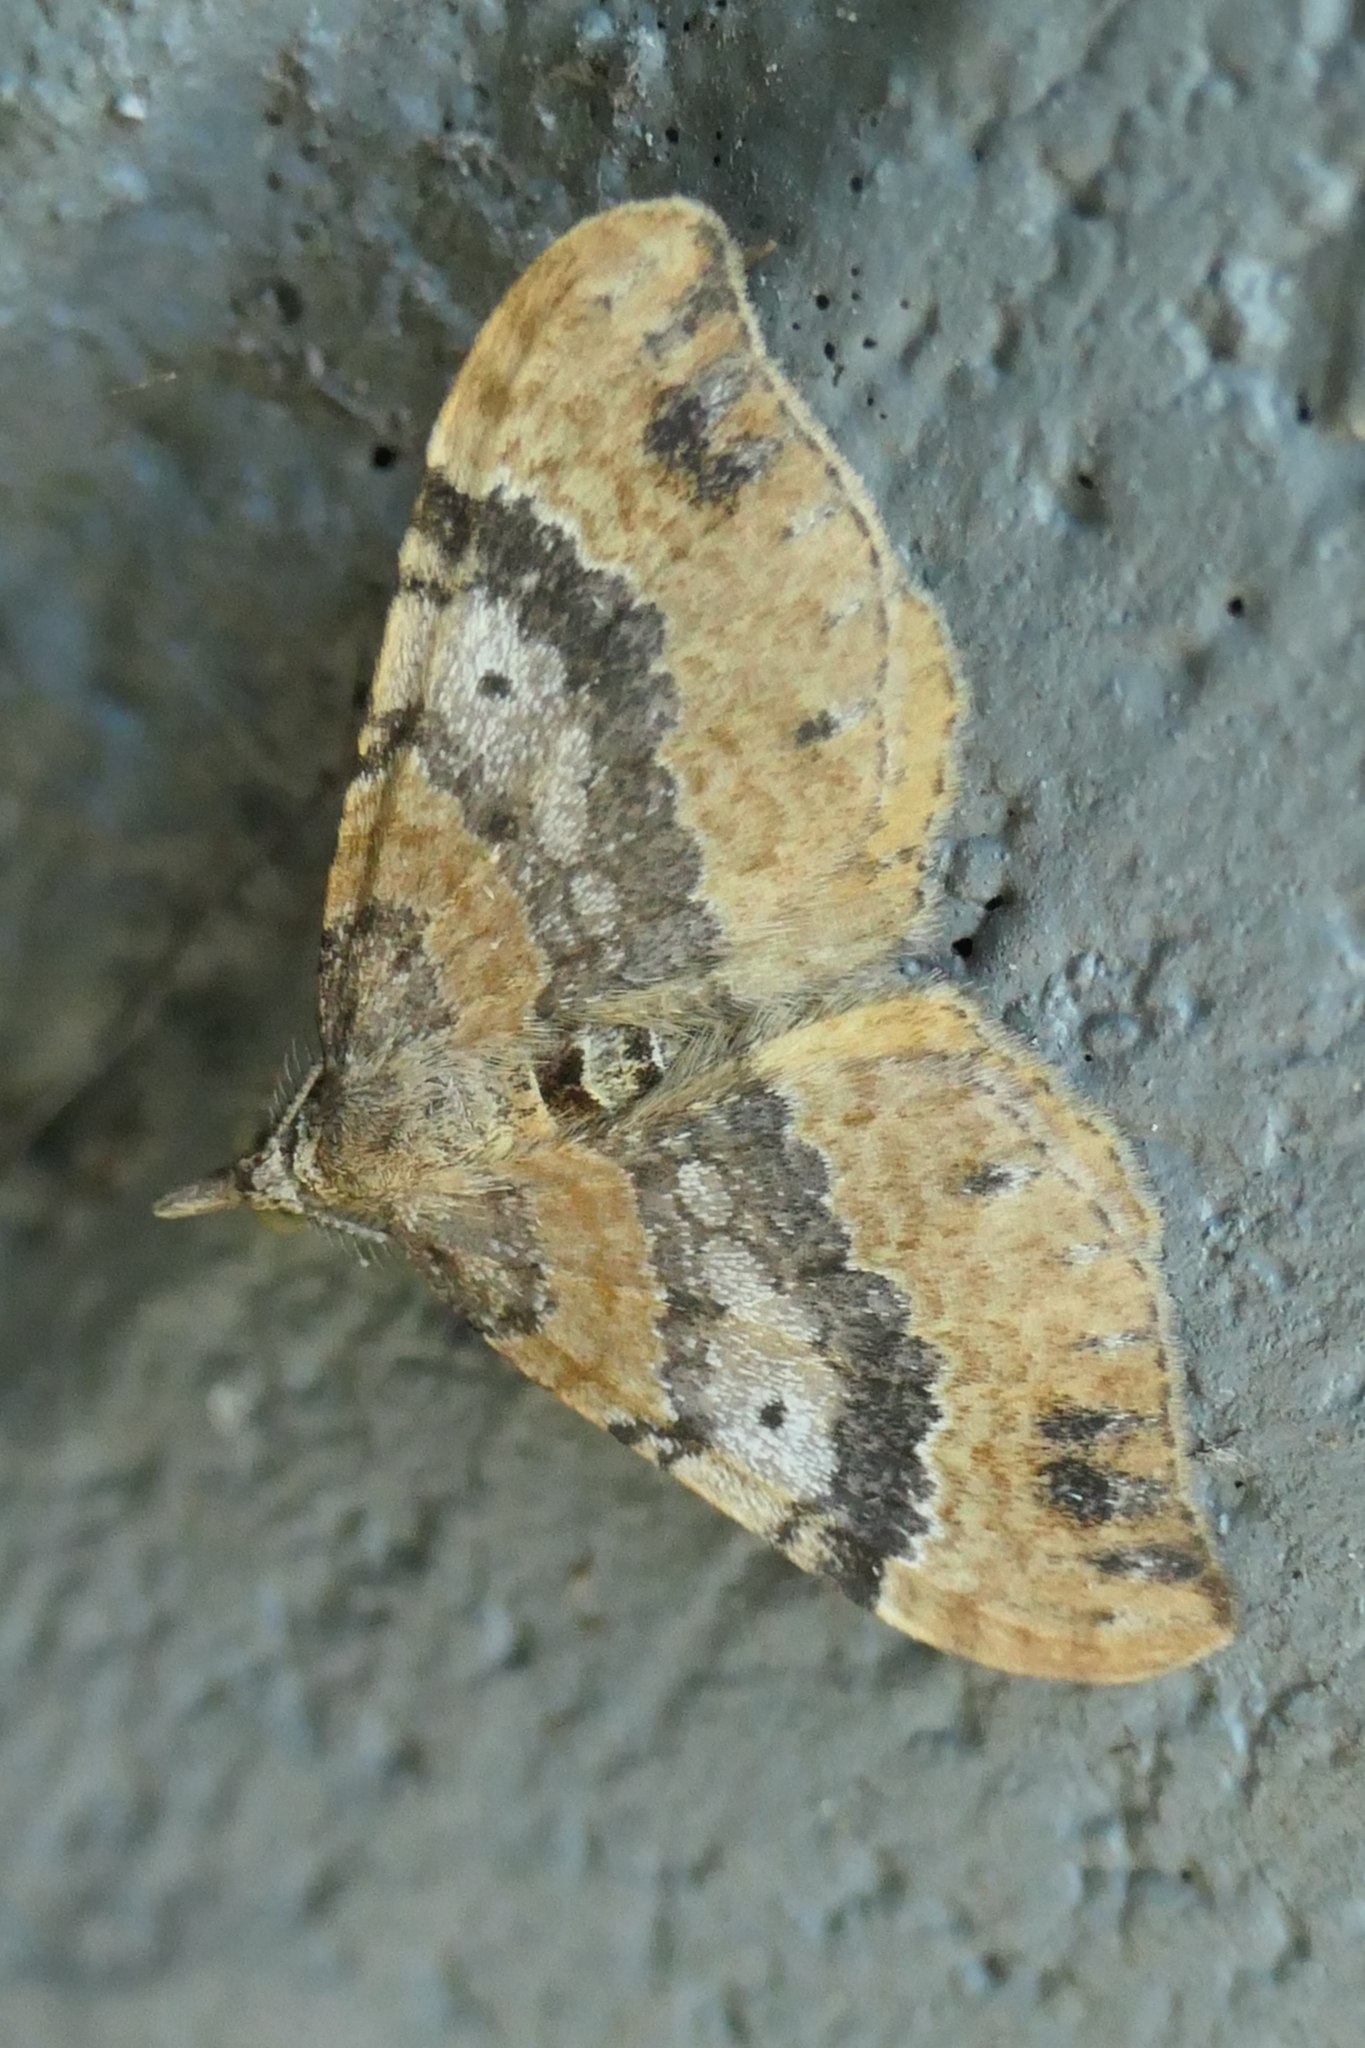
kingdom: Animalia
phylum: Arthropoda
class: Insecta
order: Lepidoptera
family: Geometridae
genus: Homodotis
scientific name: Homodotis megaspilata
